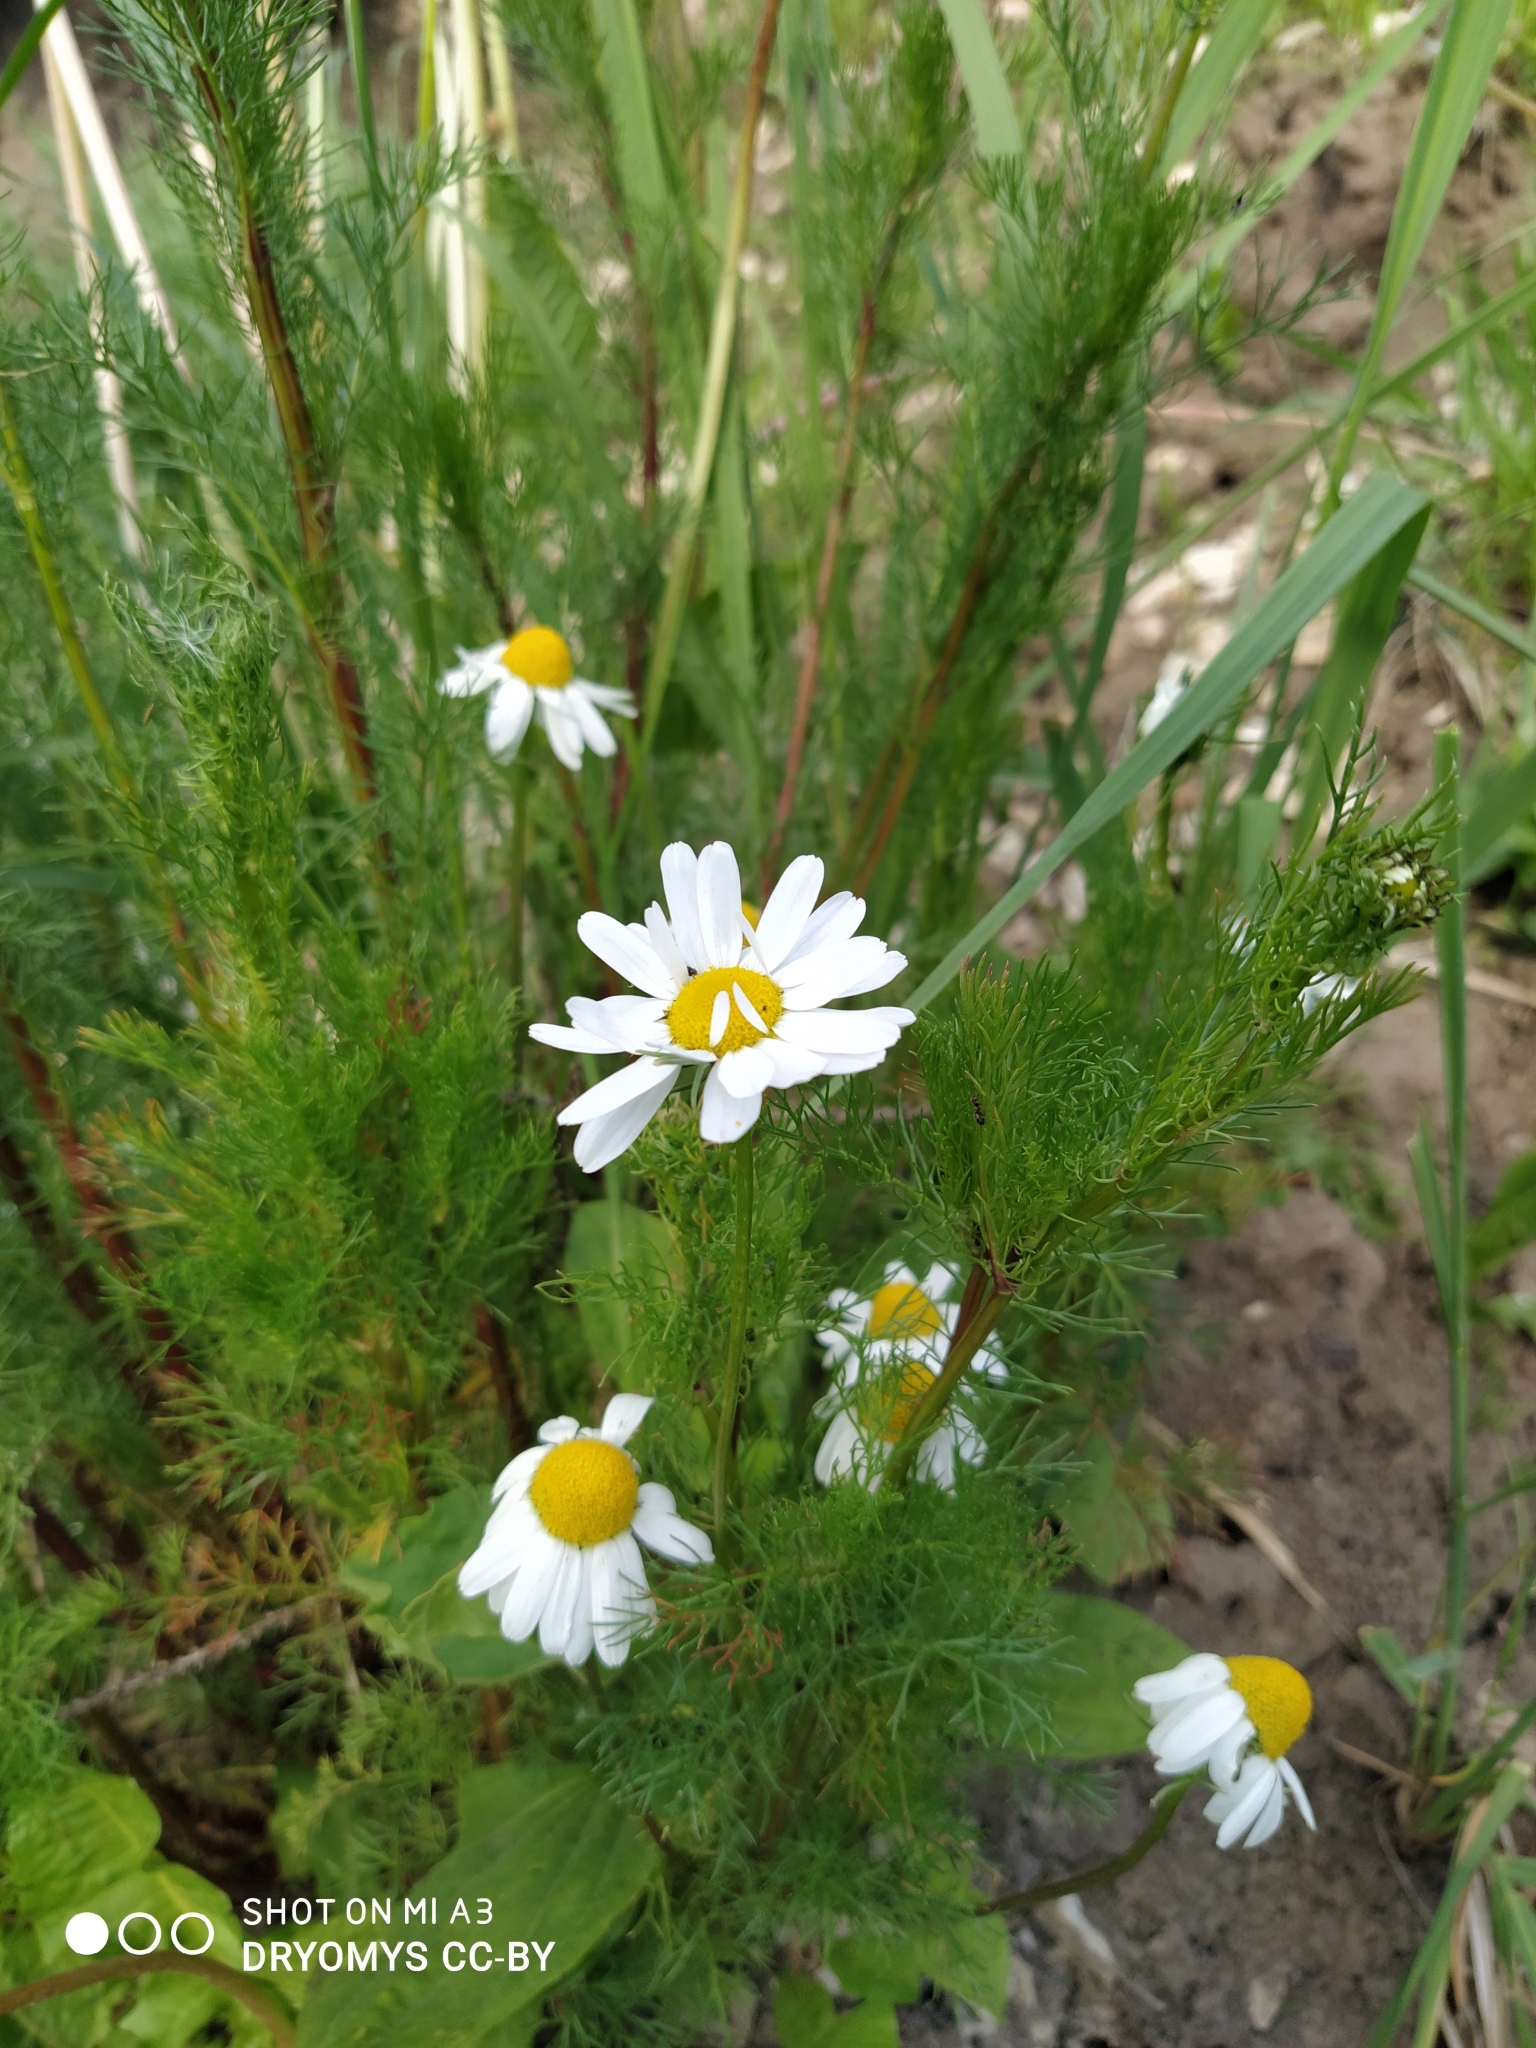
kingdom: Plantae
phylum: Tracheophyta
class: Magnoliopsida
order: Asterales
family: Asteraceae
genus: Tripleurospermum
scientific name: Tripleurospermum inodorum
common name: Scentless mayweed
